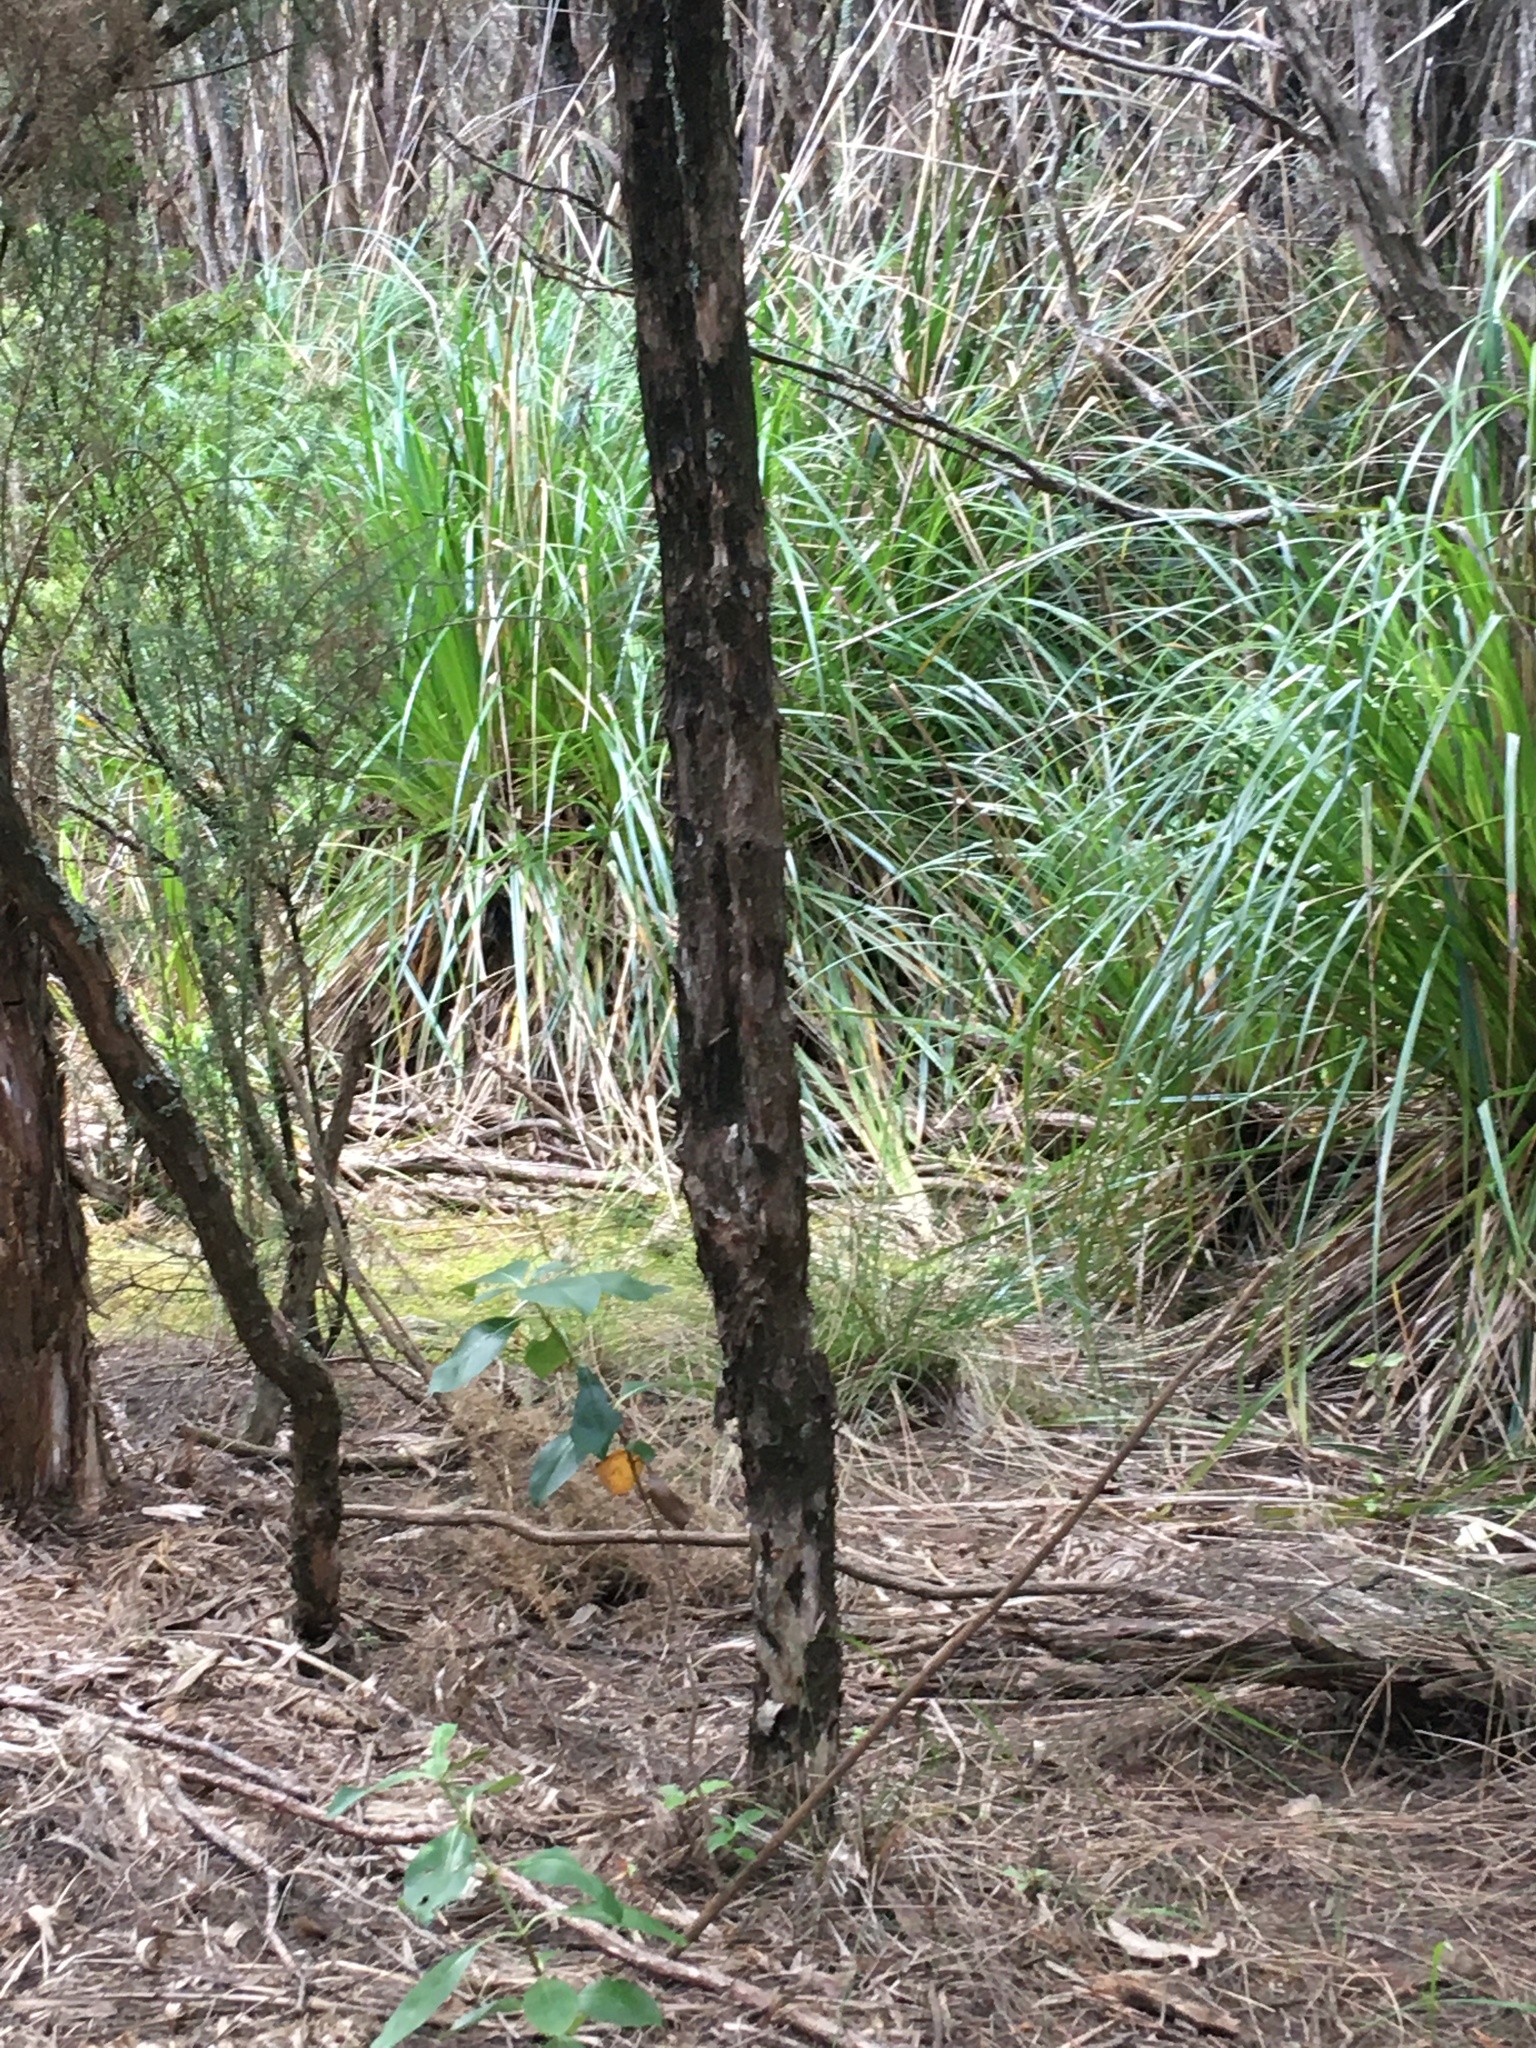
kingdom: Plantae
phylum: Tracheophyta
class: Magnoliopsida
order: Fabales
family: Fabaceae
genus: Ulex
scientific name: Ulex europaeus
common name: Common gorse
